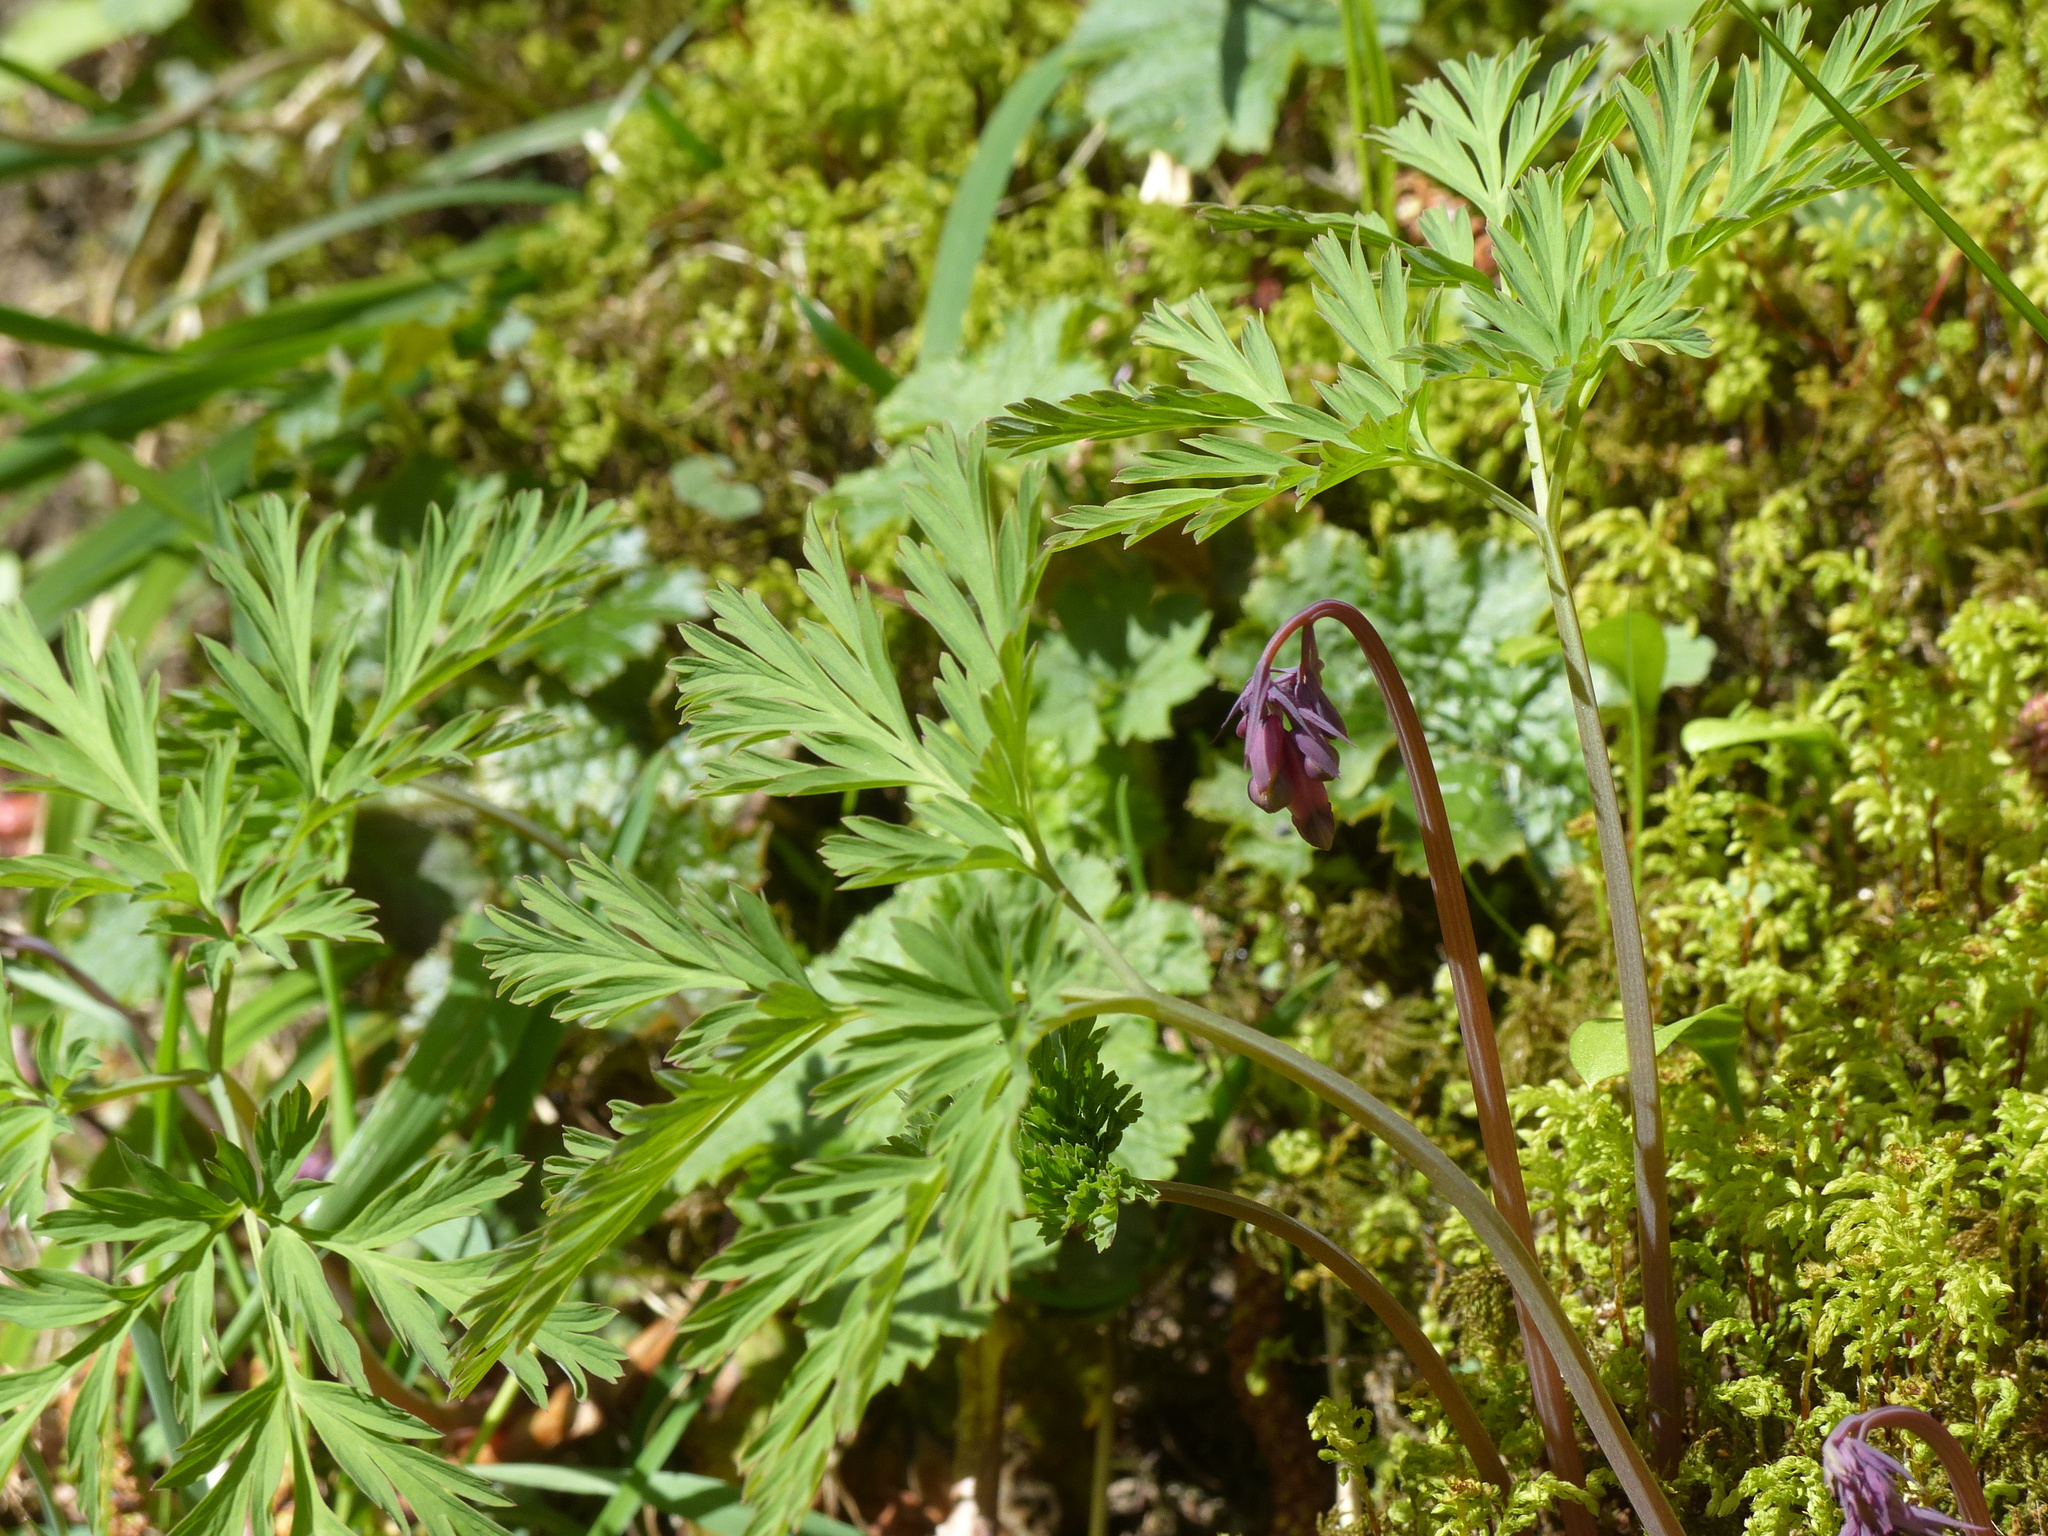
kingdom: Plantae
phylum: Tracheophyta
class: Magnoliopsida
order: Ranunculales
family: Papaveraceae
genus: Dicentra
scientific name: Dicentra formosa
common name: Bleeding-heart
